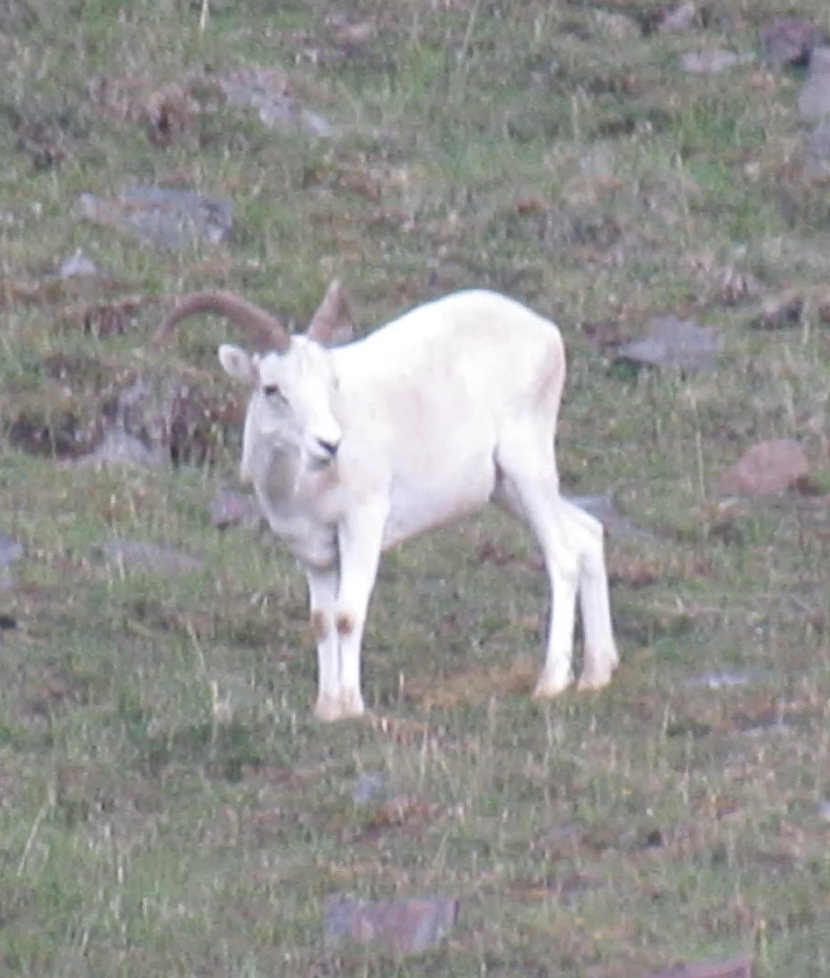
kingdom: Animalia
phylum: Chordata
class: Mammalia
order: Artiodactyla
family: Bovidae
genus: Ovis
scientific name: Ovis dalli
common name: Dall's sheep
